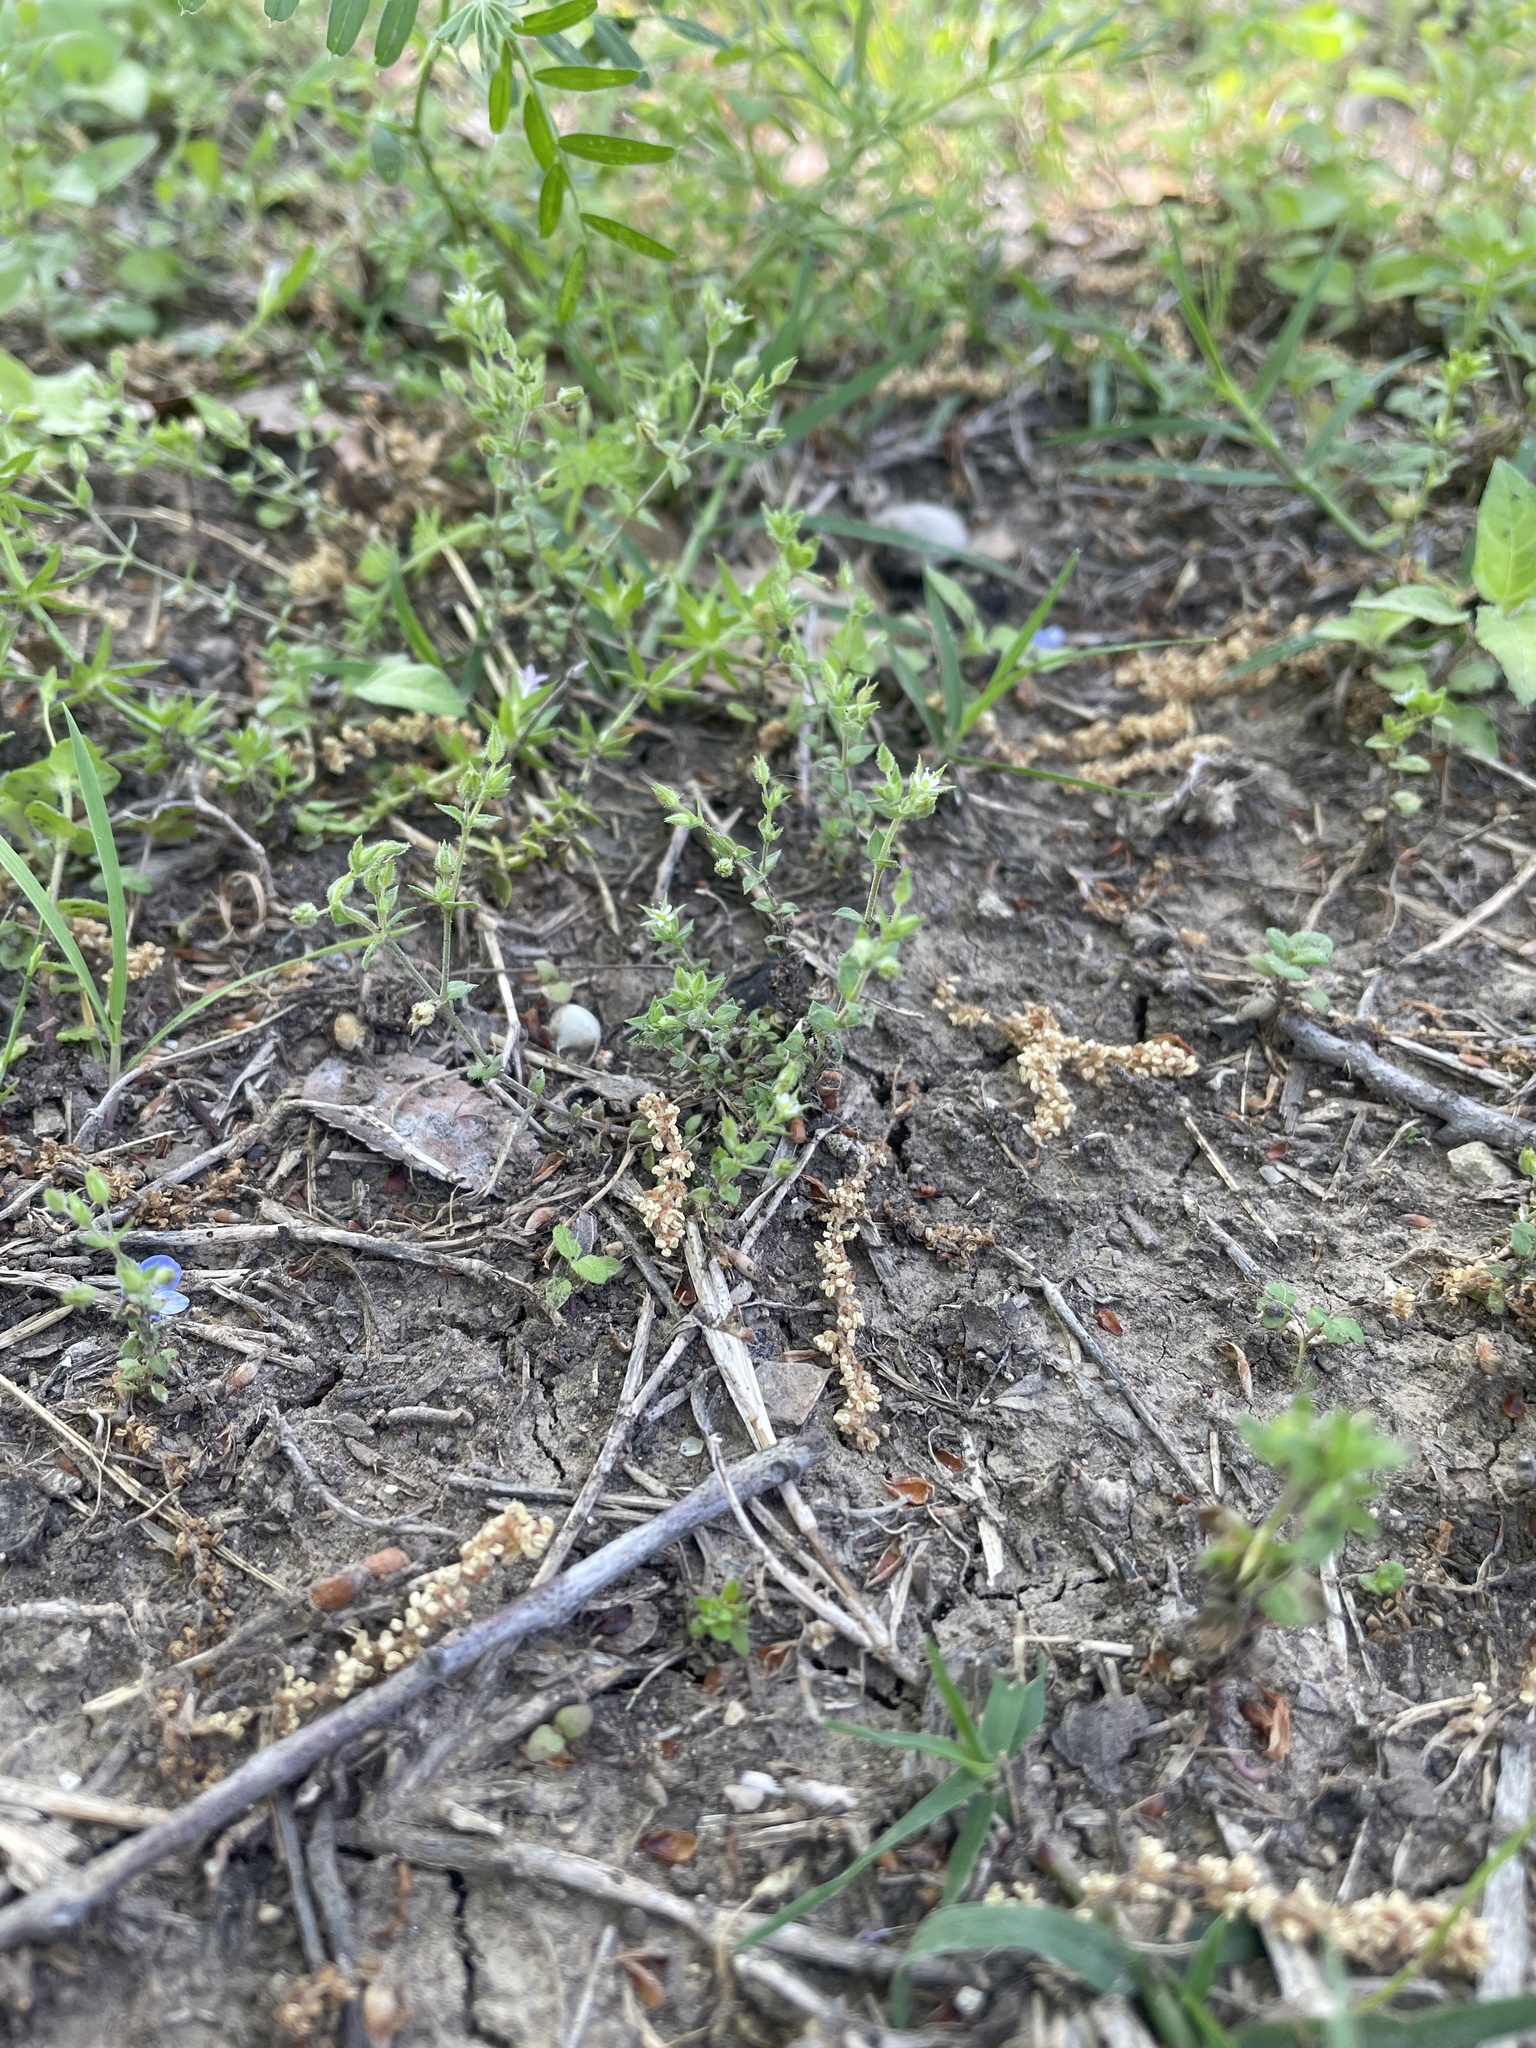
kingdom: Plantae
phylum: Tracheophyta
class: Magnoliopsida
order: Caryophyllales
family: Caryophyllaceae
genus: Arenaria
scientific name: Arenaria serpyllifolia
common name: Thyme-leaved sandwort
